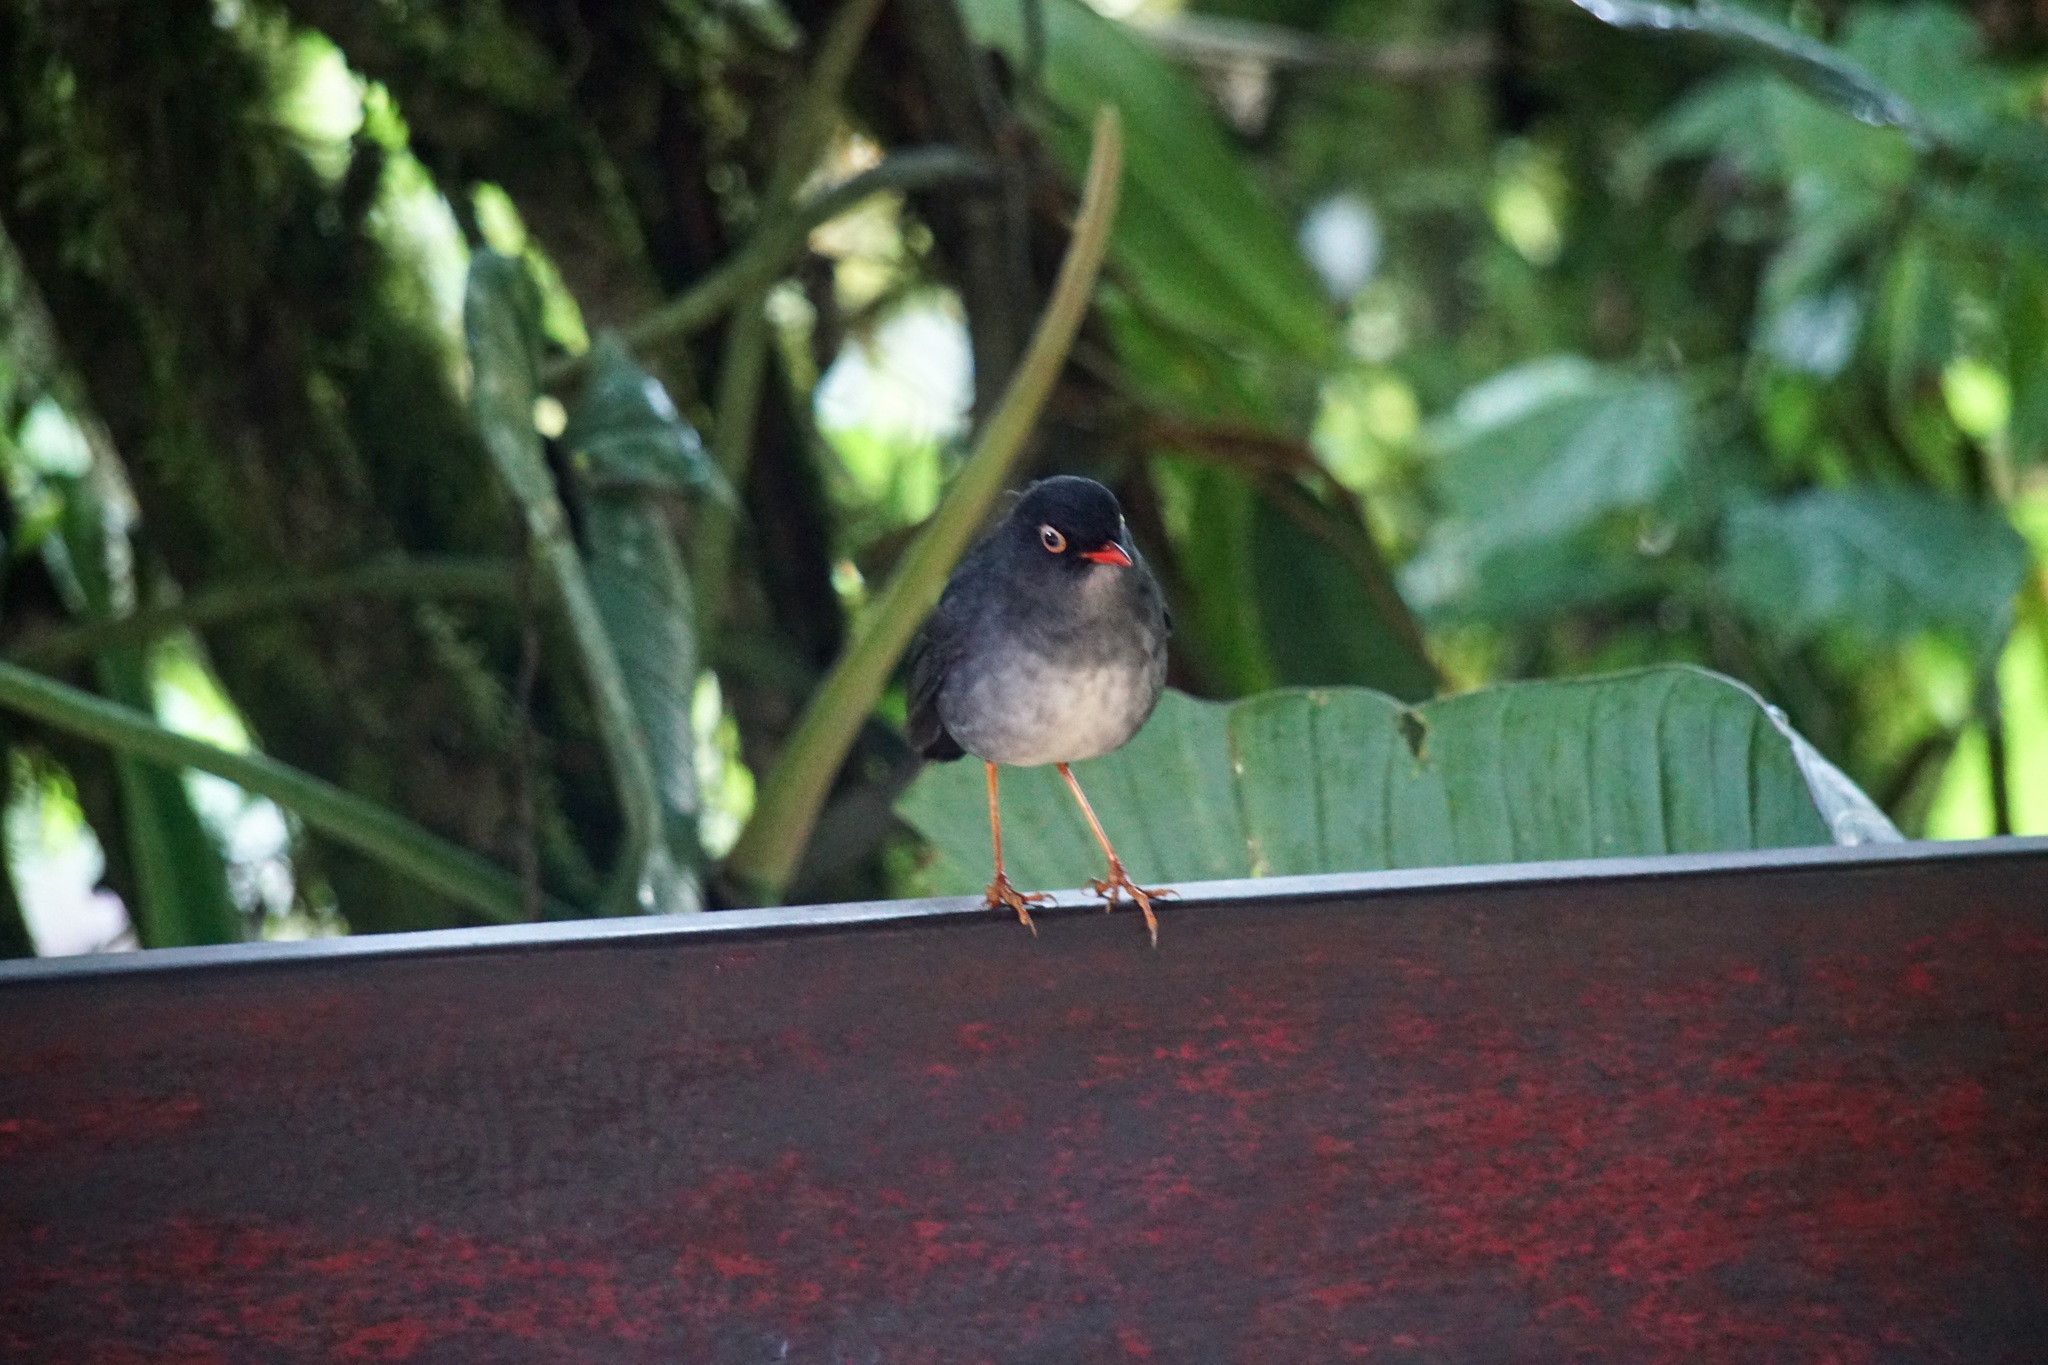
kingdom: Animalia
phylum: Chordata
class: Aves
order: Passeriformes
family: Turdidae
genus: Catharus
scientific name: Catharus fuscater
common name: Slaty-backed nightingale-thrush
